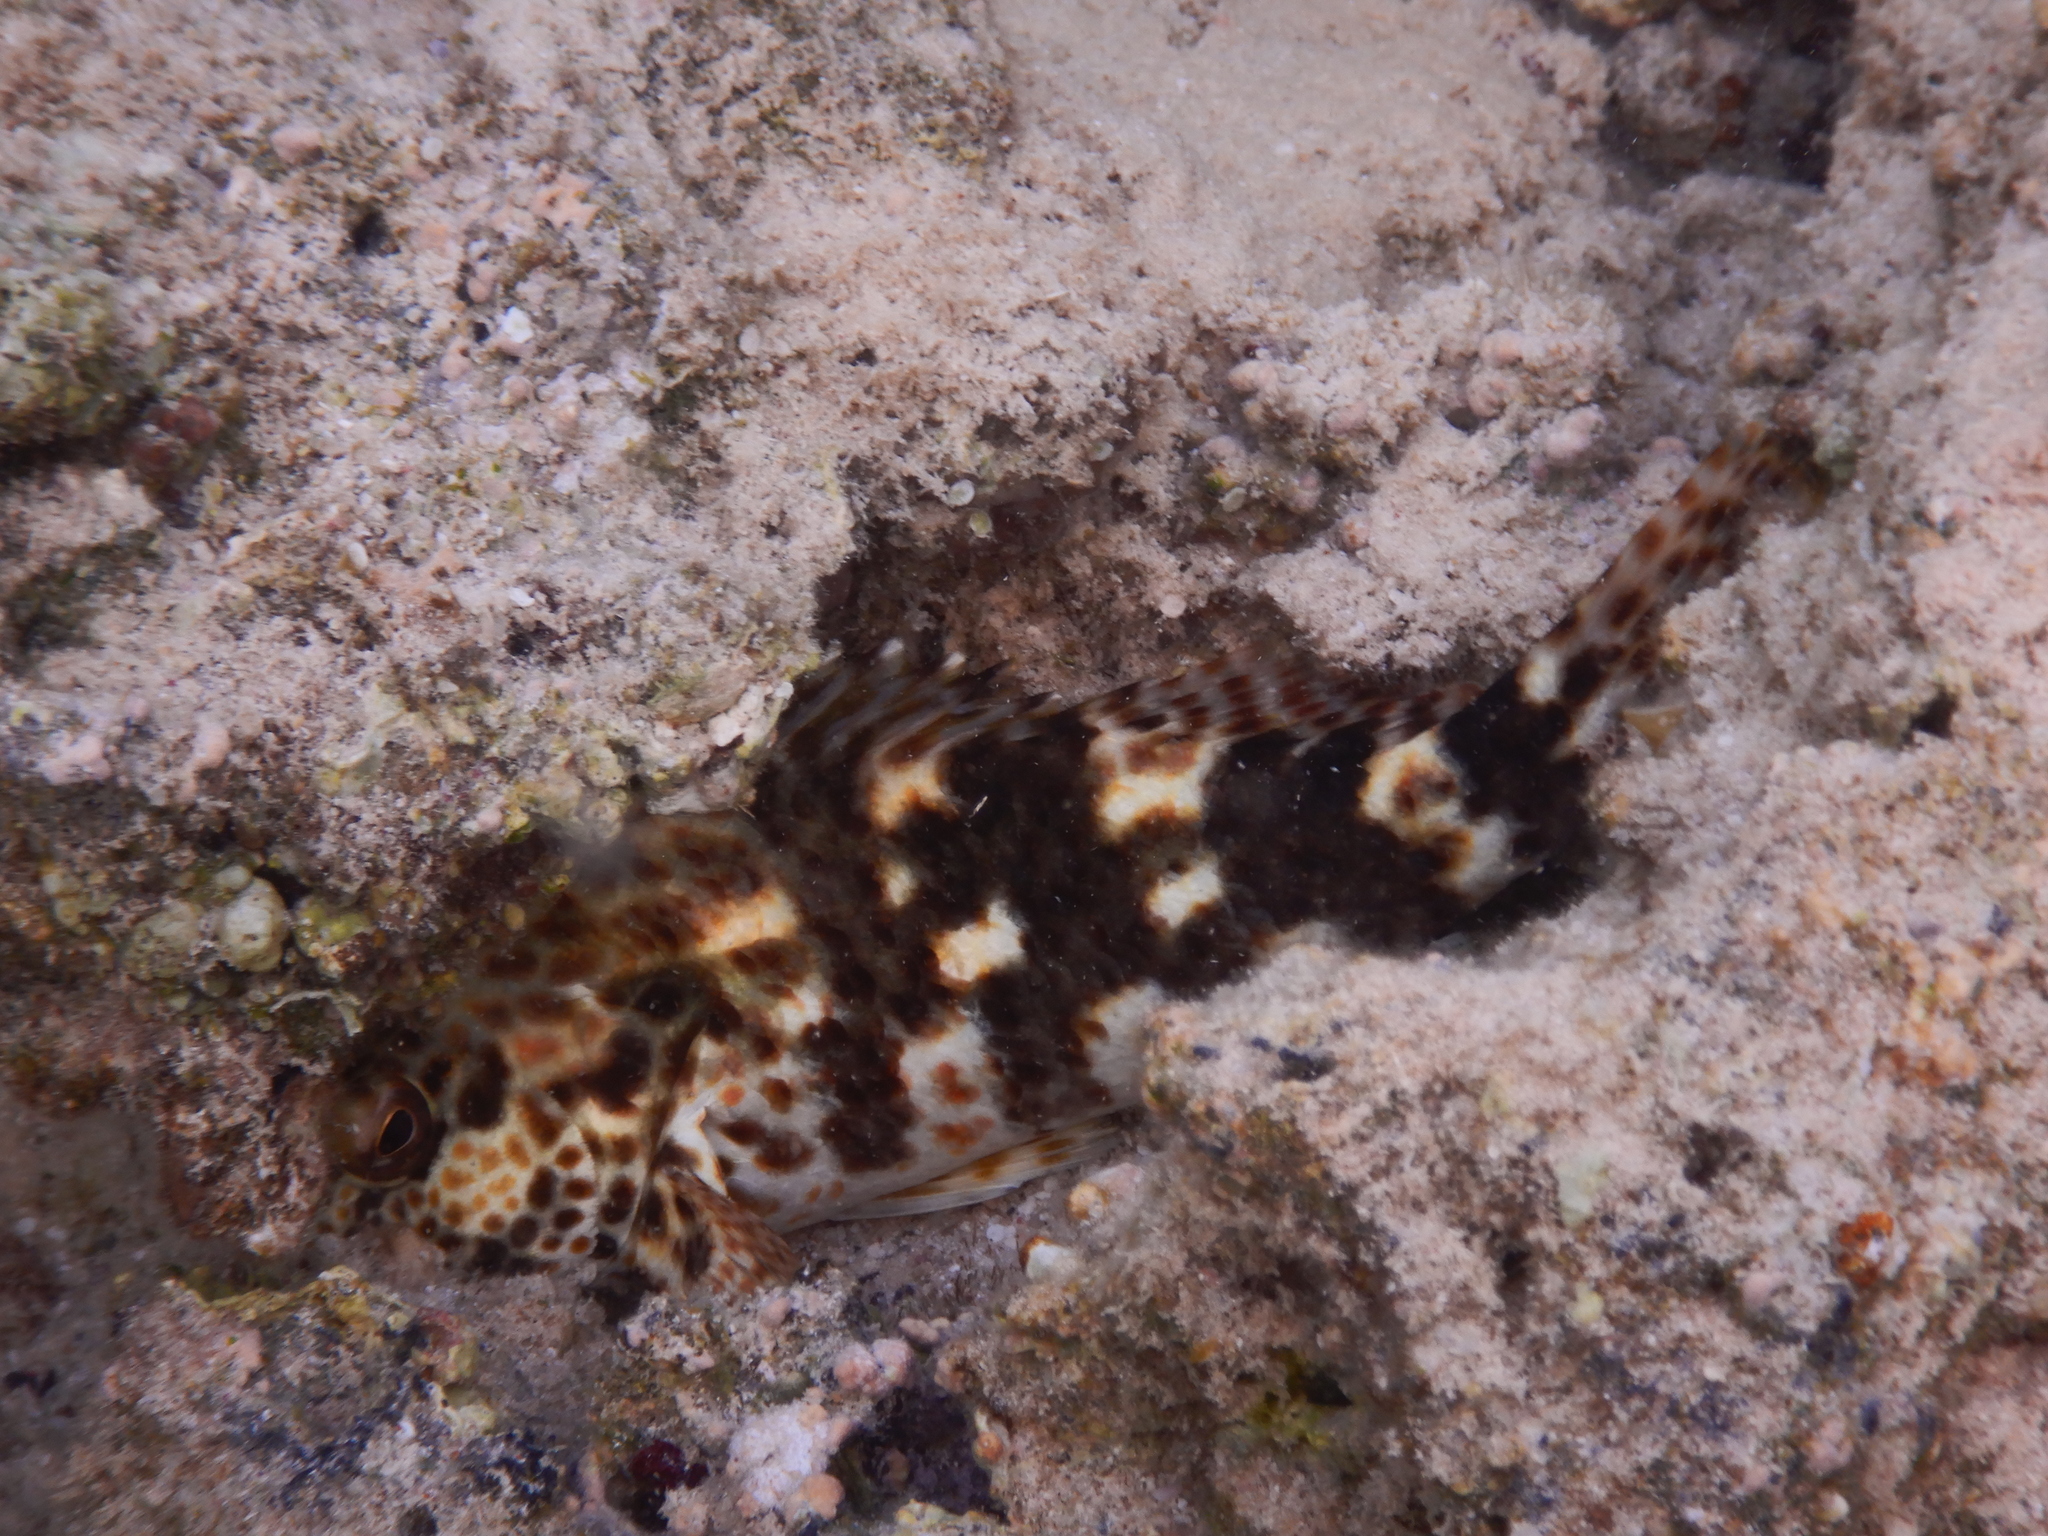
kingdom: Animalia
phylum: Chordata
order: Perciformes
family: Cirrhitidae
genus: Cirrhitus
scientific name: Cirrhitus pinnulatus
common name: Stocky hawkfish
